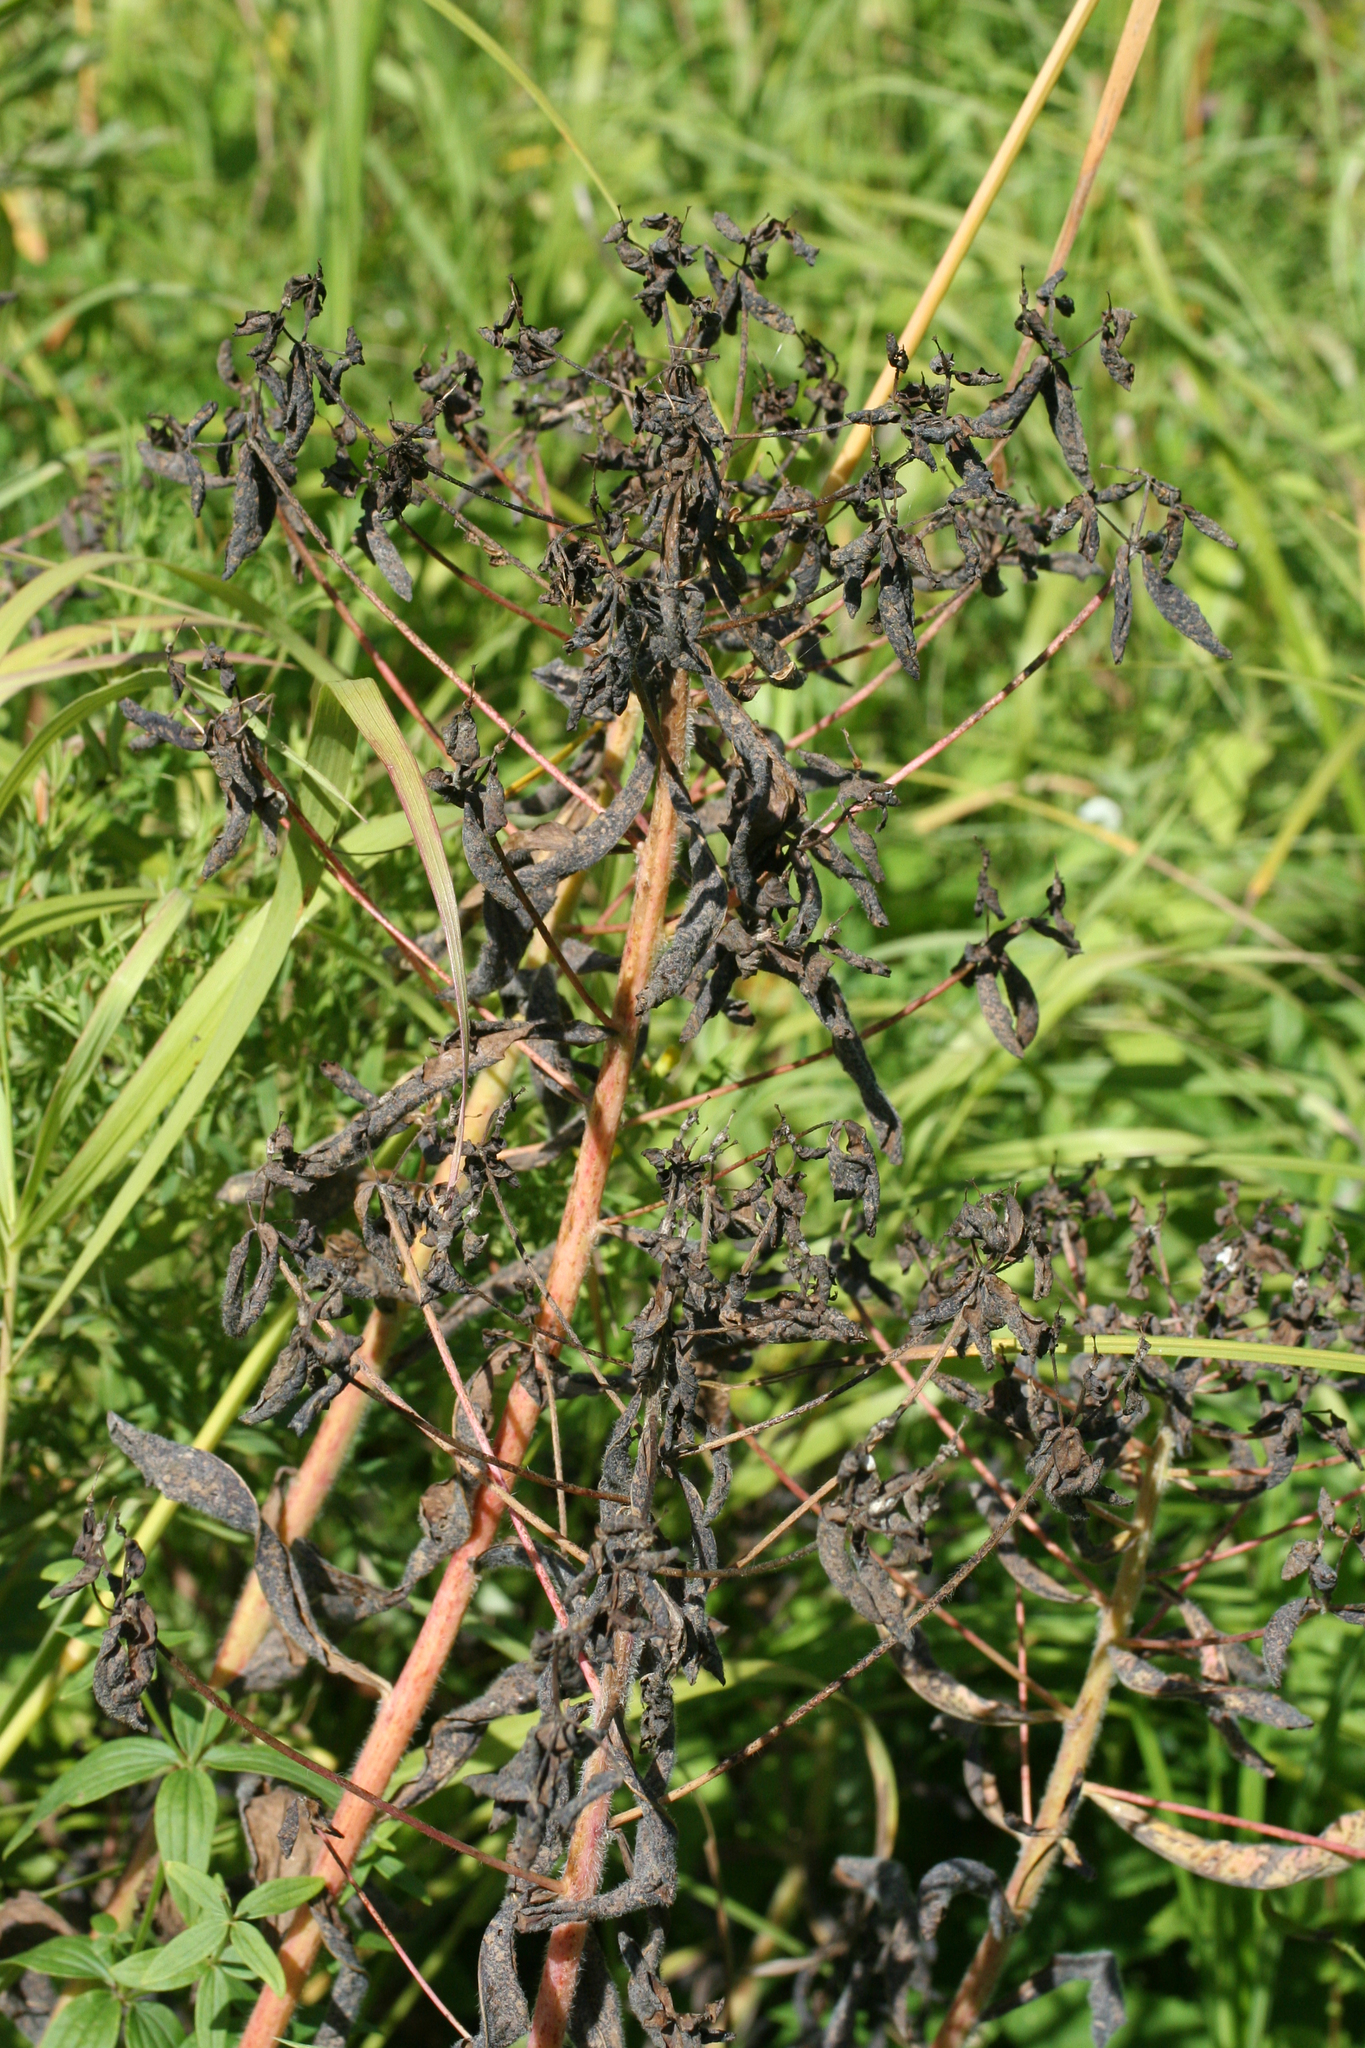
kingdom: Plantae
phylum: Tracheophyta
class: Magnoliopsida
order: Malpighiales
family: Euphorbiaceae
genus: Euphorbia
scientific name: Euphorbia pilosa
